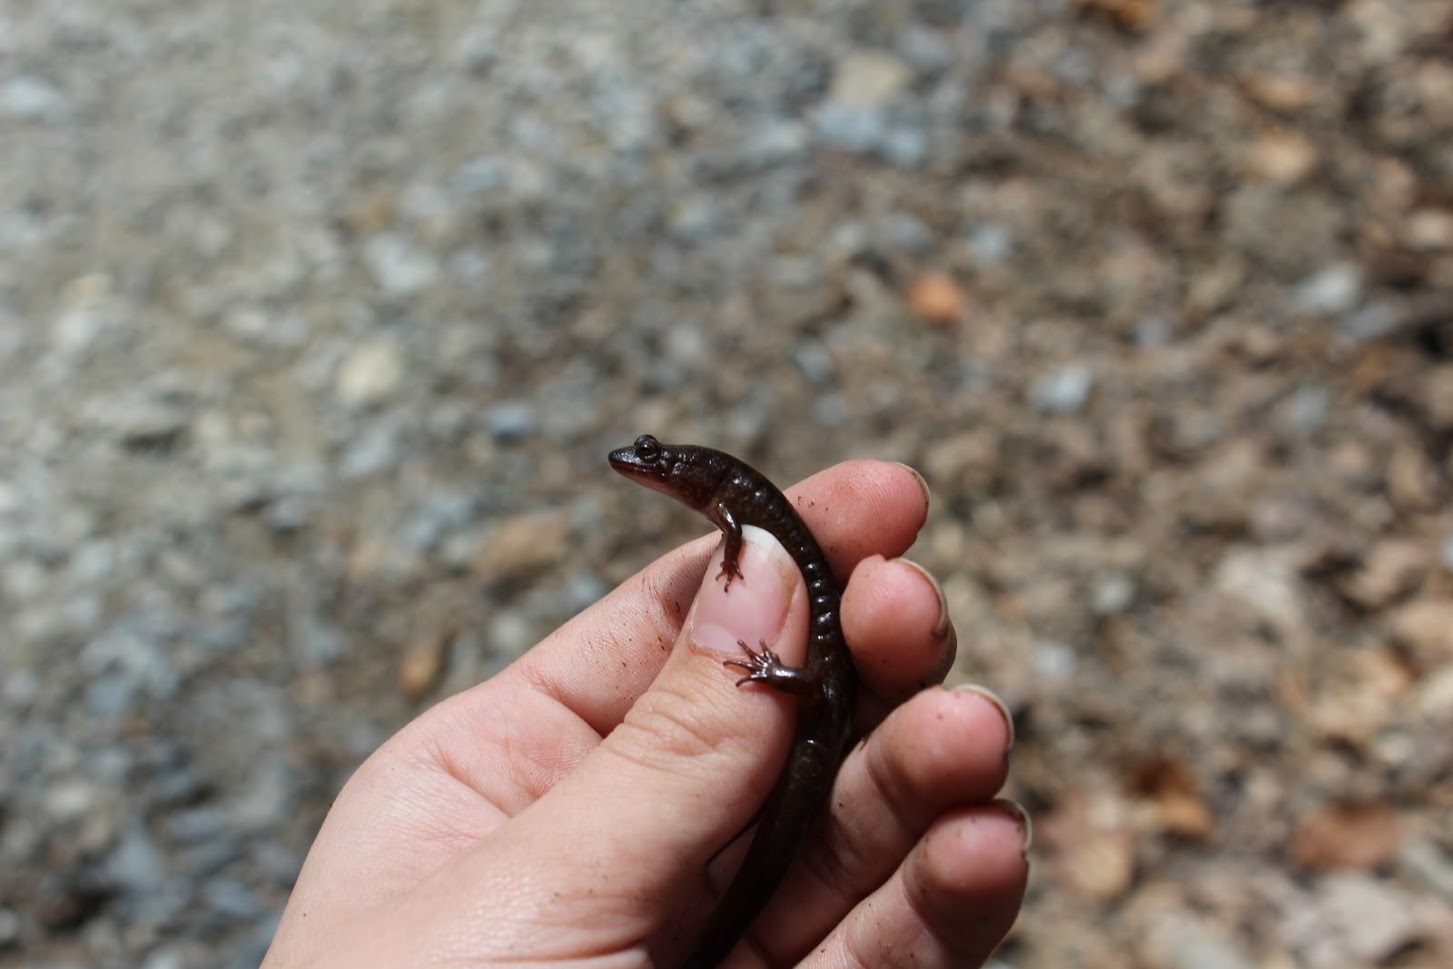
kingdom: Animalia
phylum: Chordata
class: Amphibia
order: Caudata
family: Plethodontidae
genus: Desmognathus
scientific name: Desmognathus monticola
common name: Seal salamander
